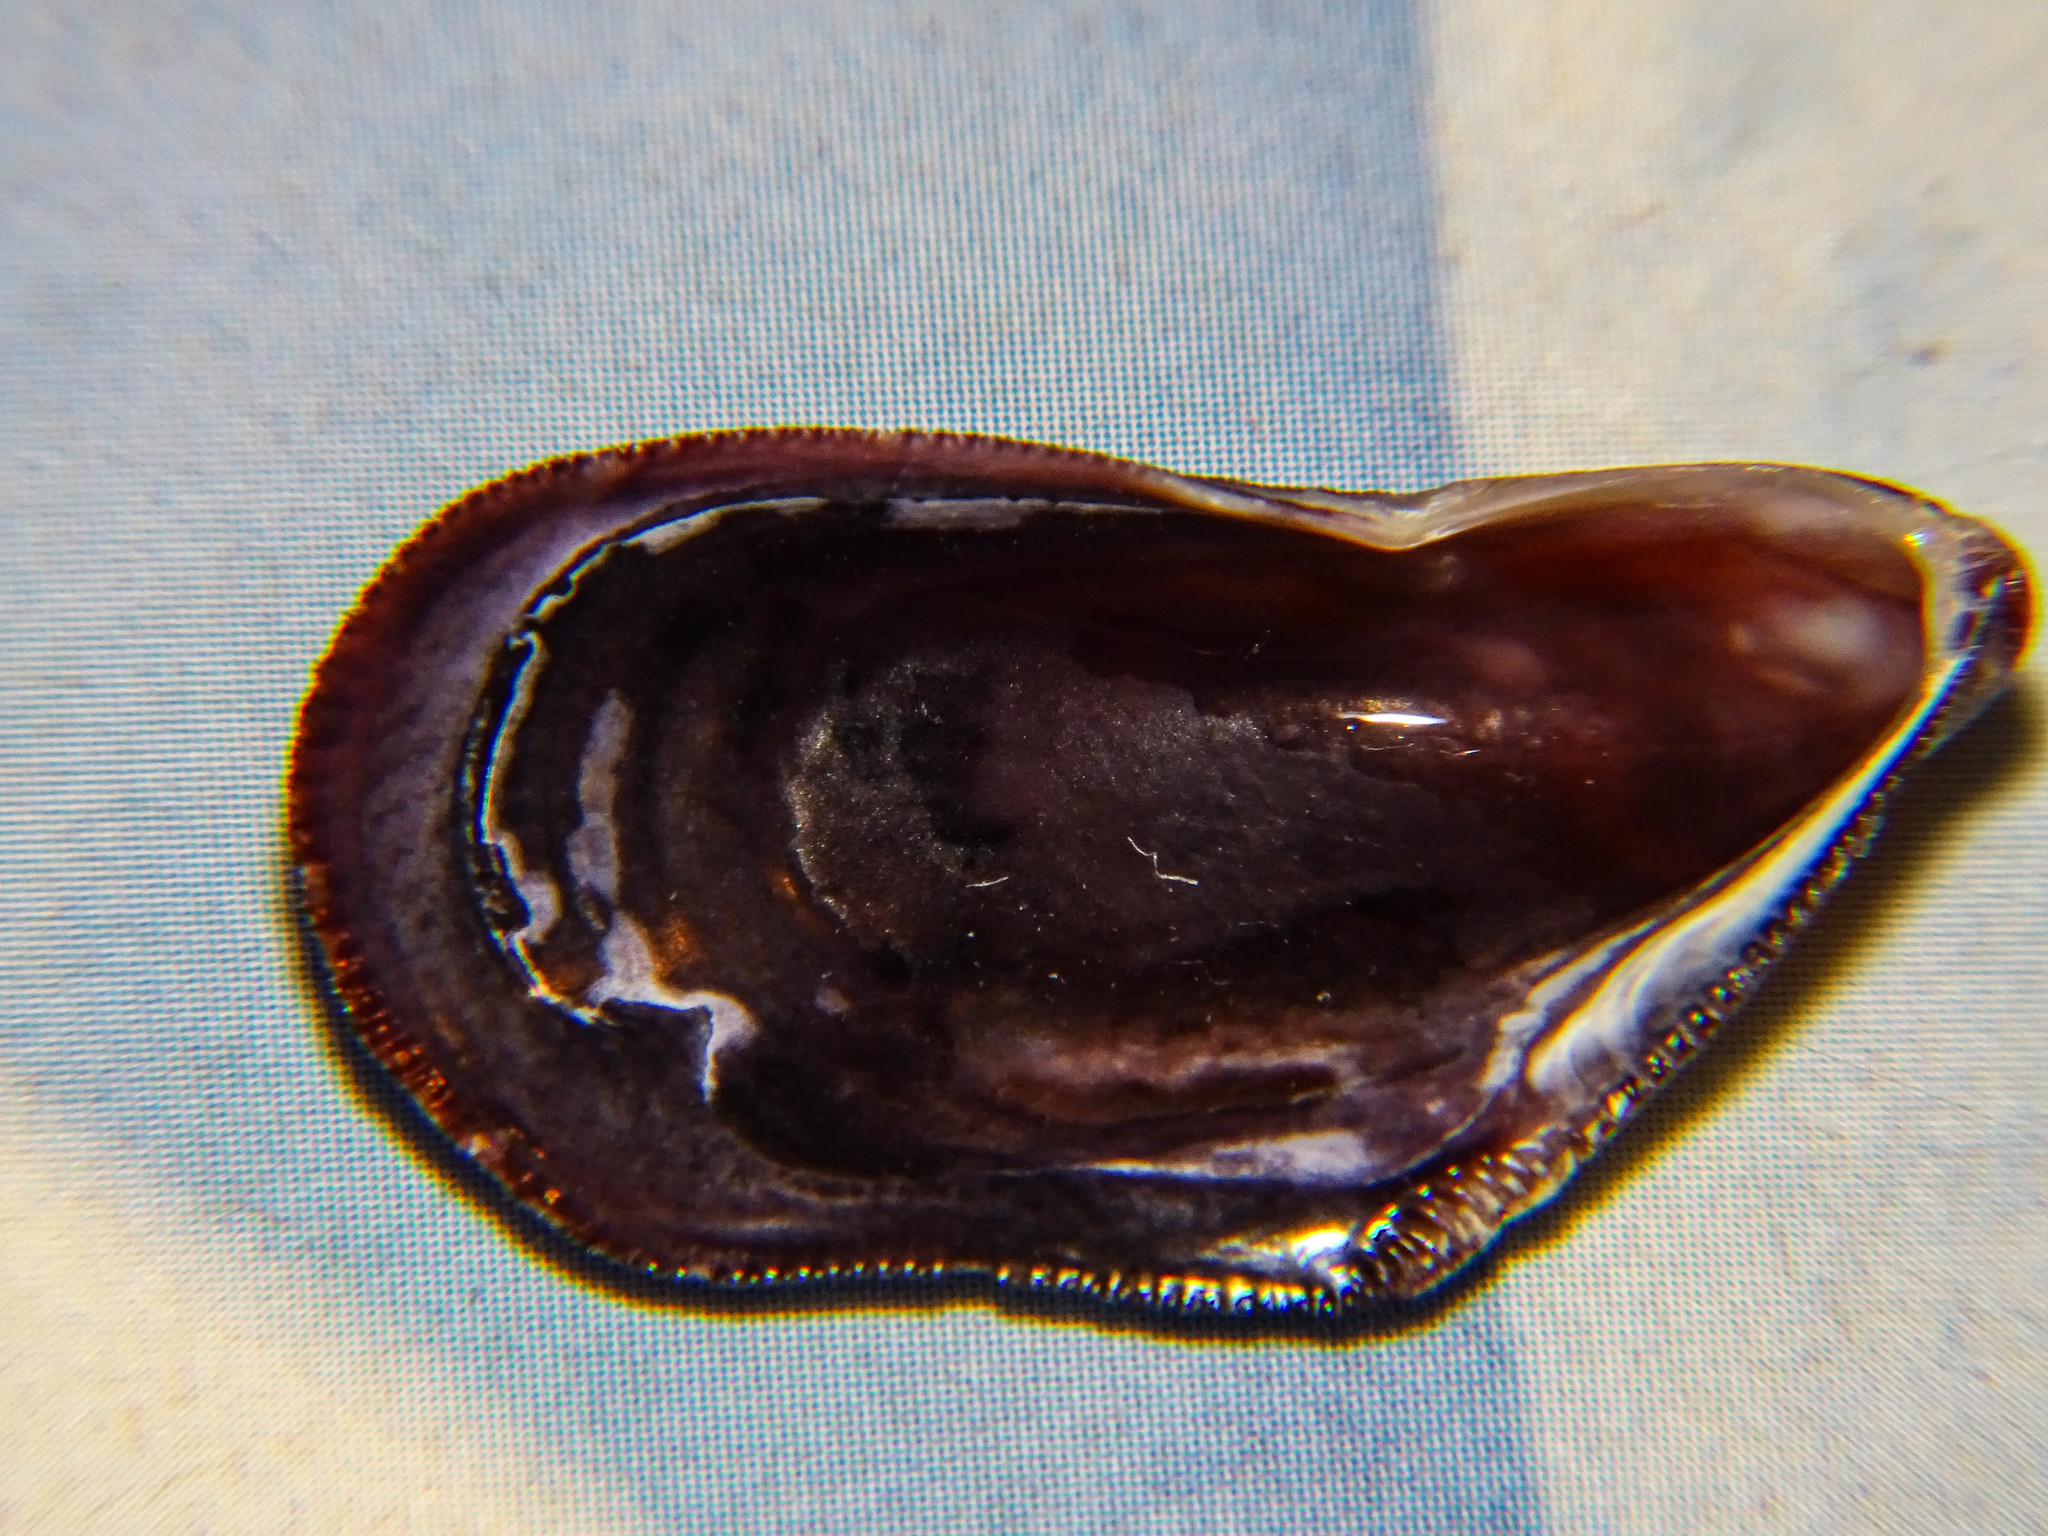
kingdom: Animalia
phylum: Mollusca
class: Bivalvia
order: Mytilida
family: Mytilidae
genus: Brachidontes
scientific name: Brachidontes pharaonis
